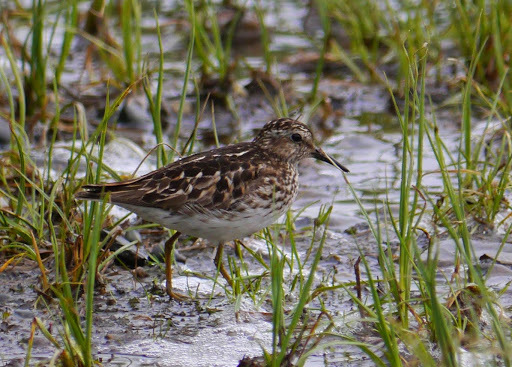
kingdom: Animalia
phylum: Chordata
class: Aves
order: Charadriiformes
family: Scolopacidae
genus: Calidris
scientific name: Calidris minutilla
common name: Least sandpiper
